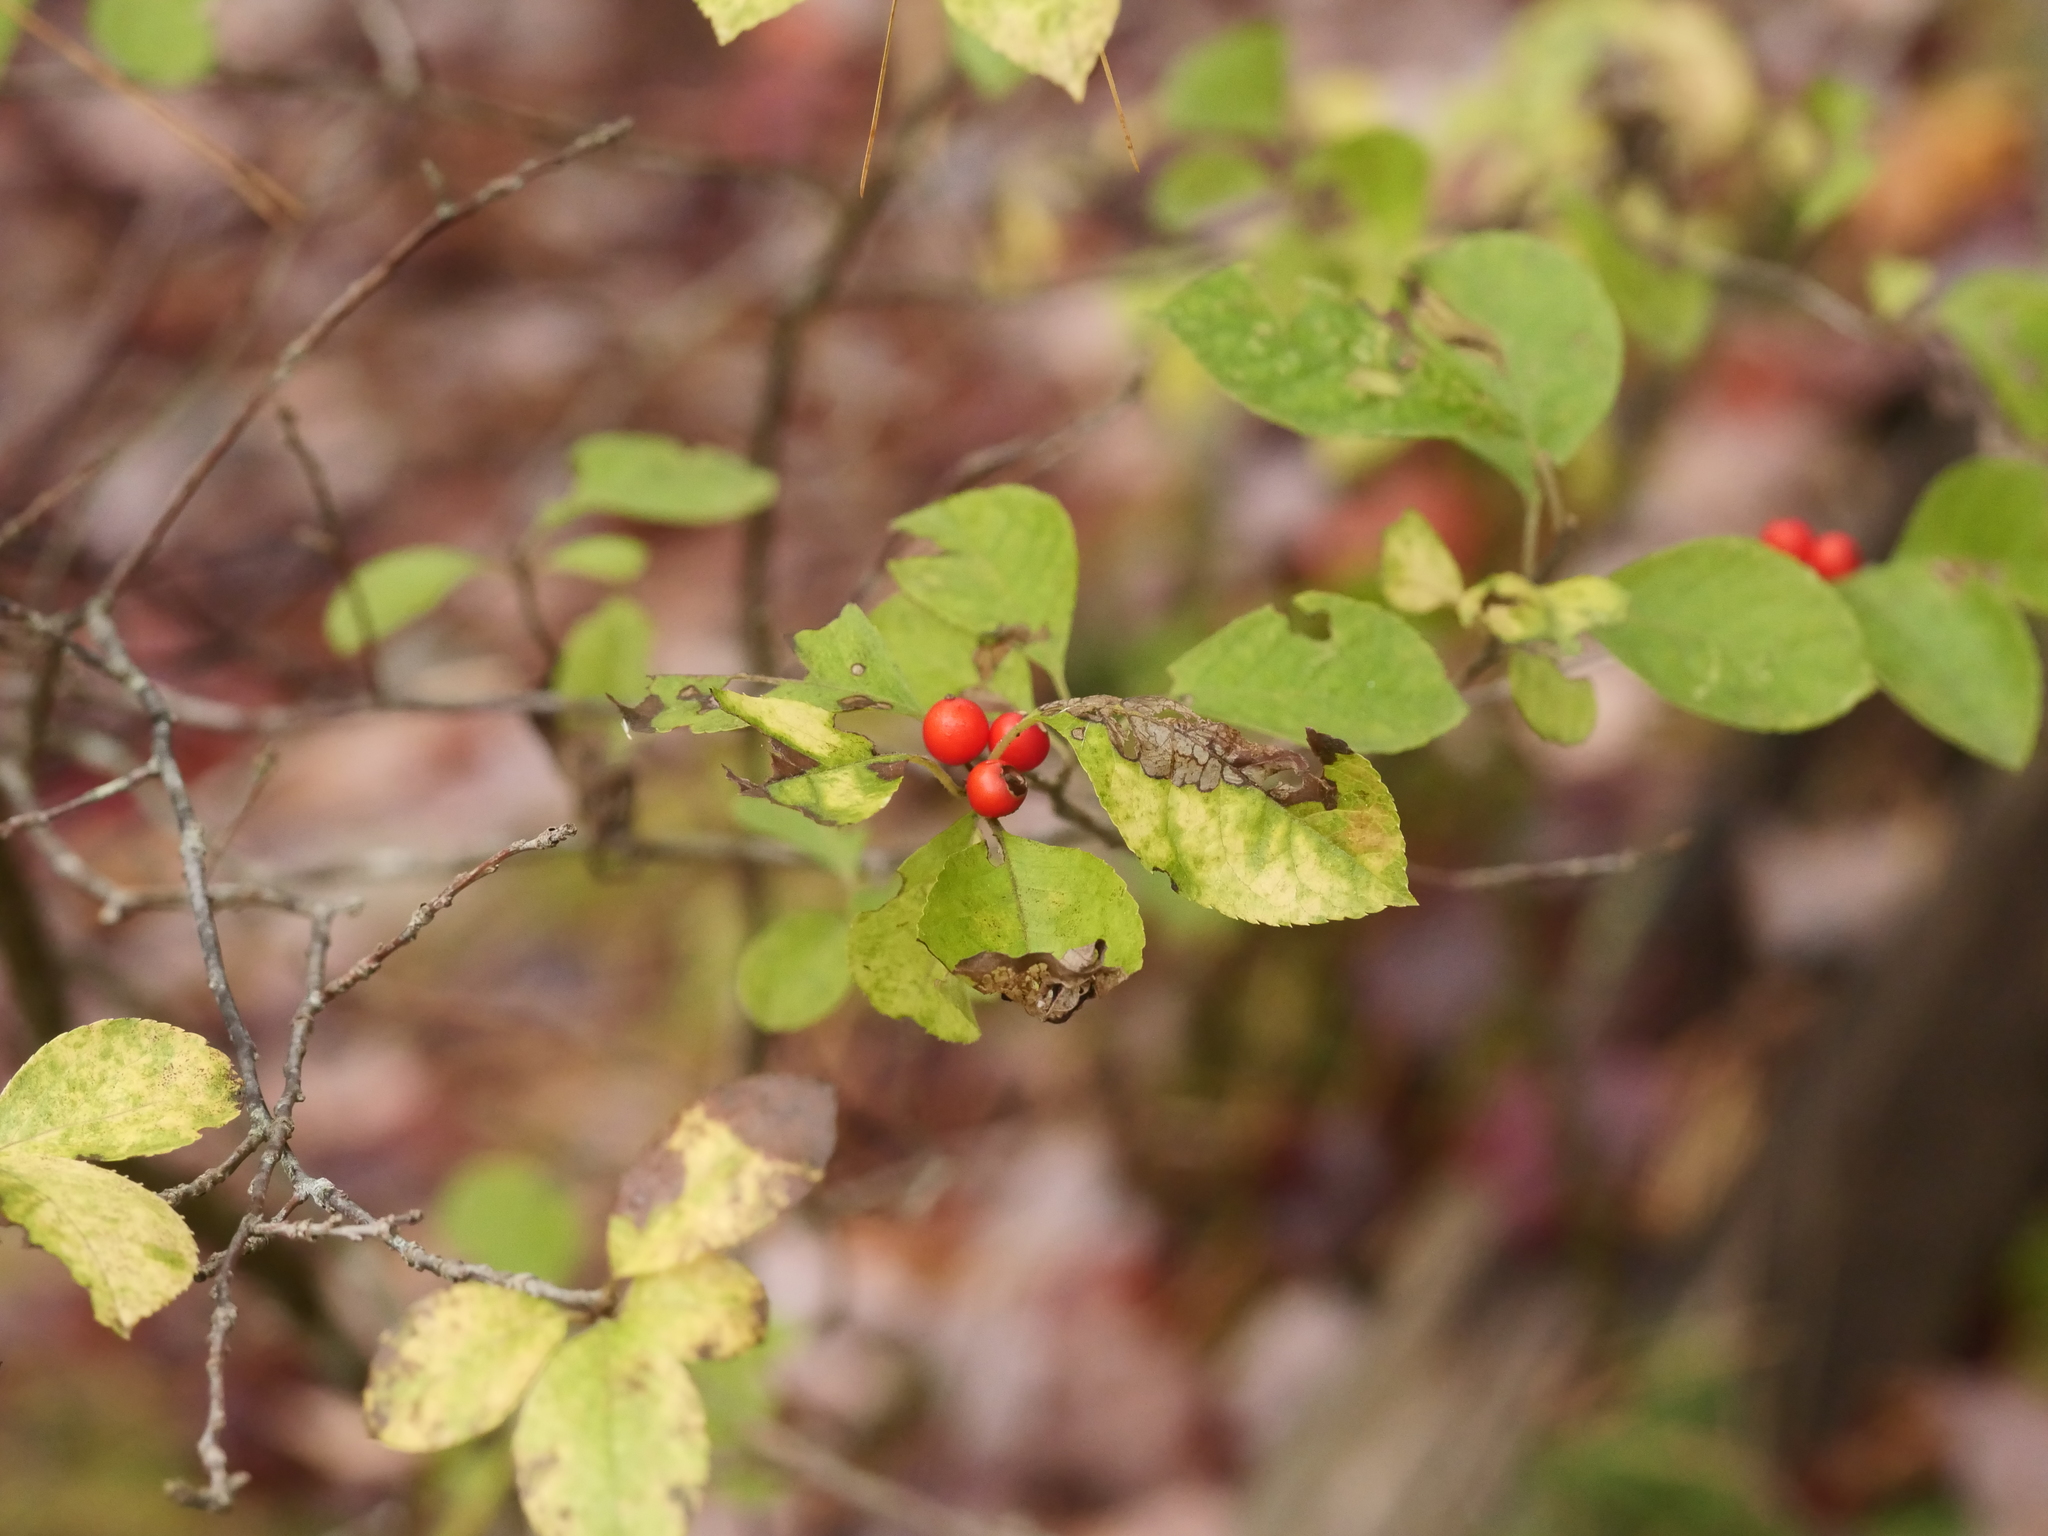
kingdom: Plantae
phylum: Tracheophyta
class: Magnoliopsida
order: Aquifoliales
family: Aquifoliaceae
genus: Ilex
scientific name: Ilex verticillata
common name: Virginia winterberry
